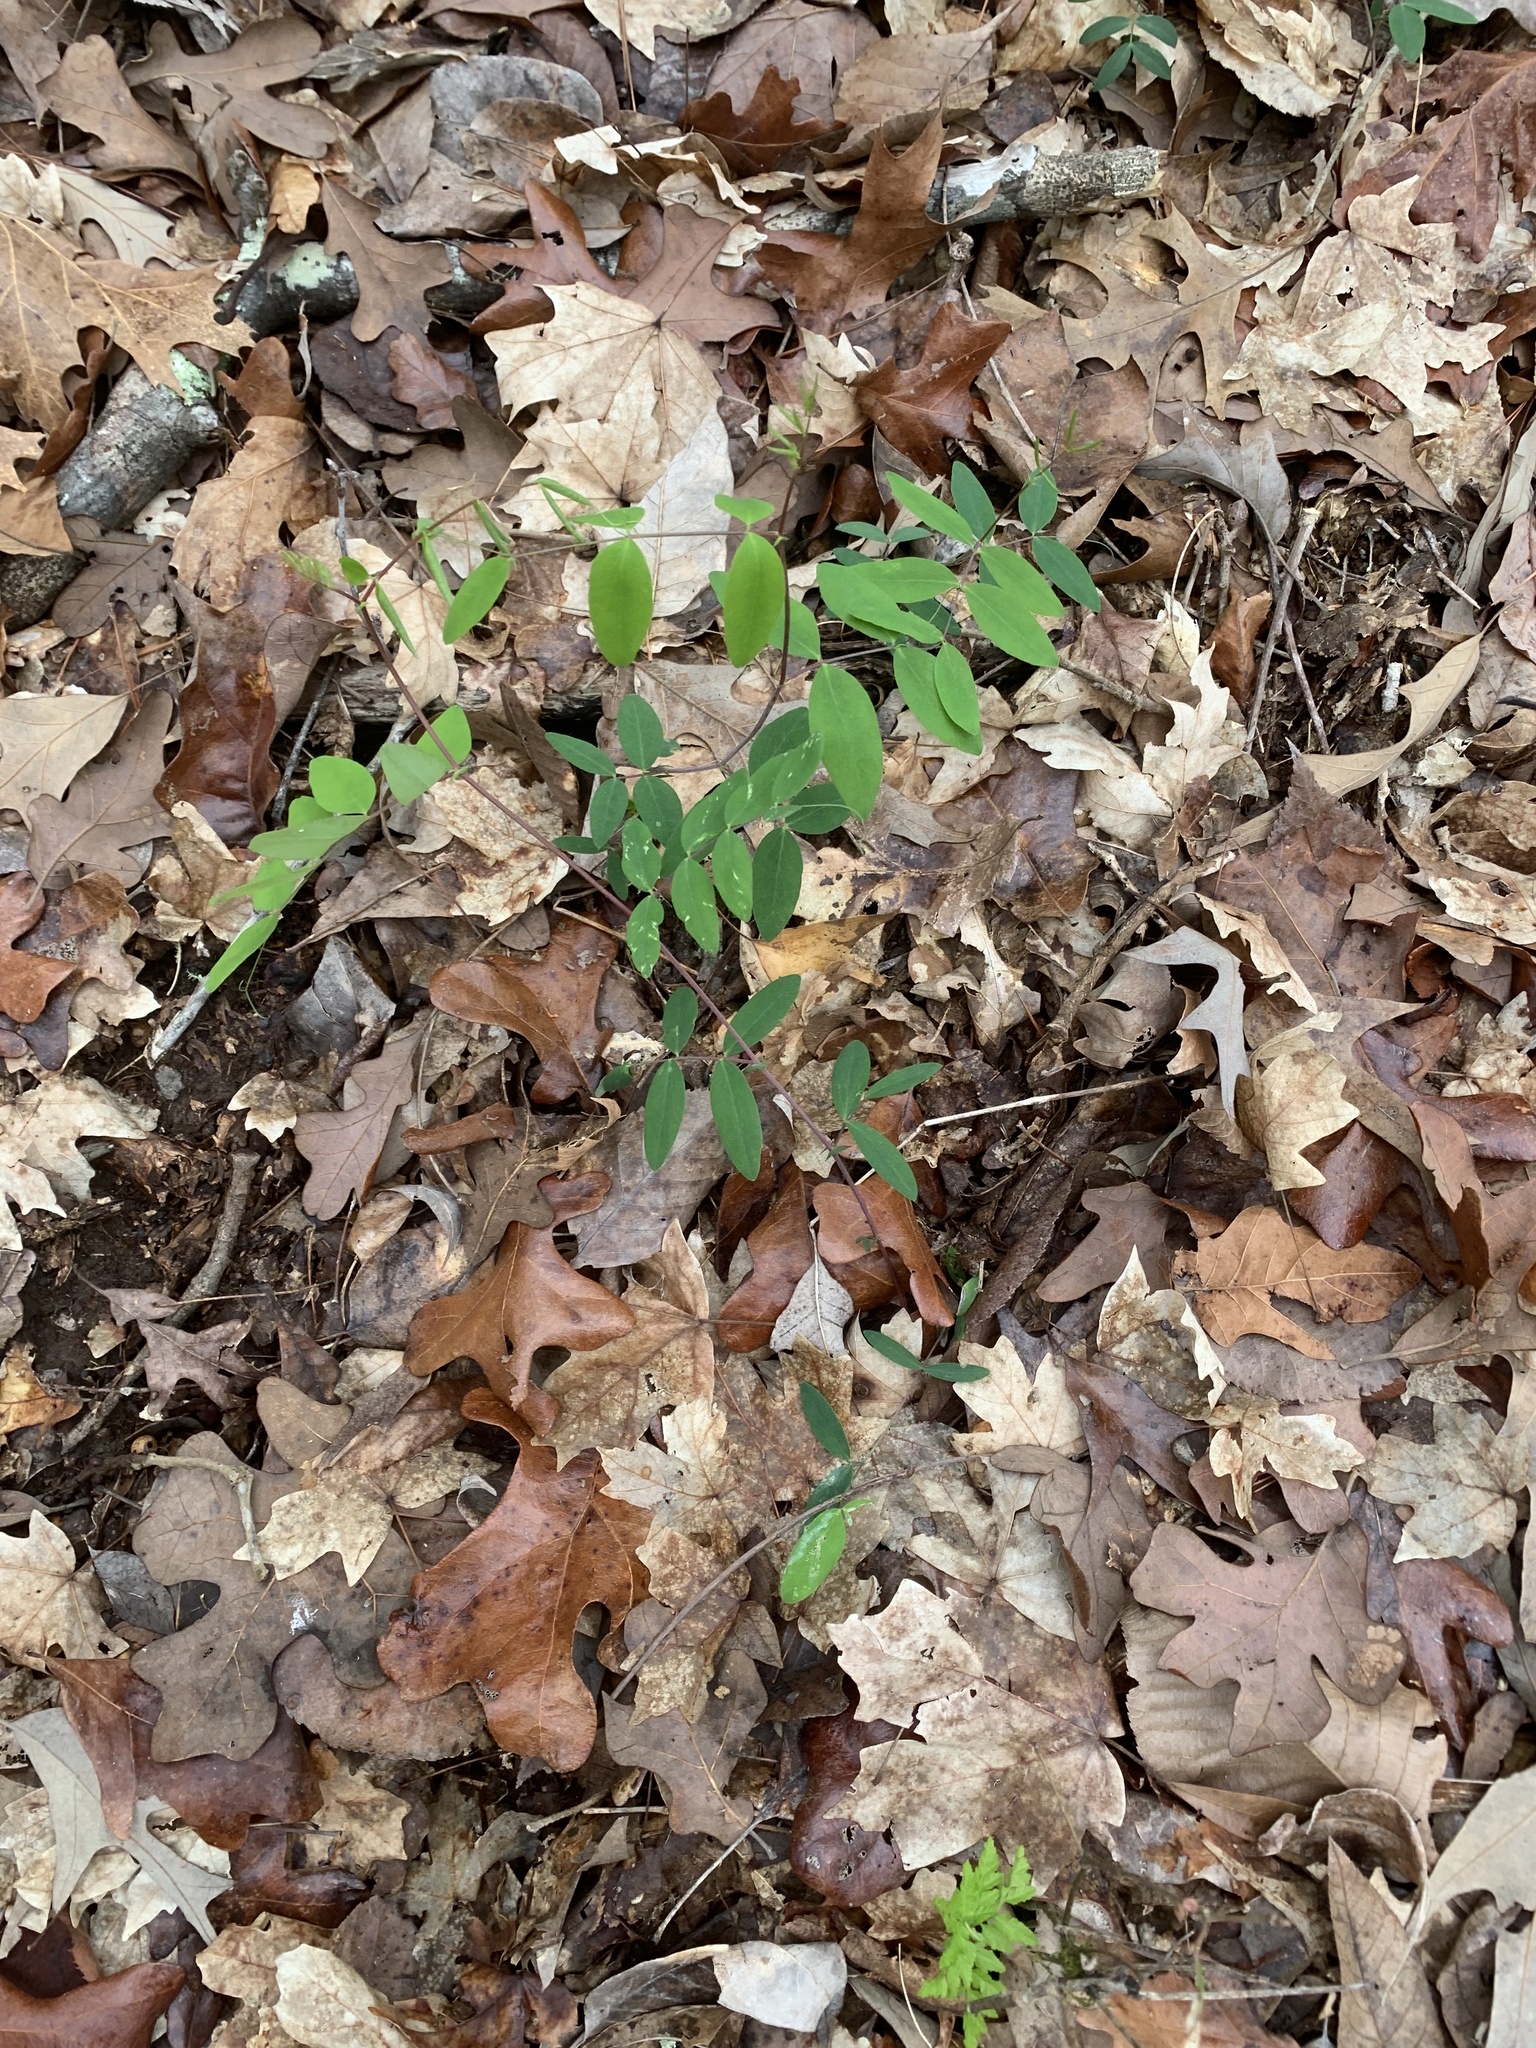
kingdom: Plantae
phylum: Tracheophyta
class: Magnoliopsida
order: Fabales
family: Fabaceae
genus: Lathyrus
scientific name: Lathyrus venosus
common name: Forest-pea
